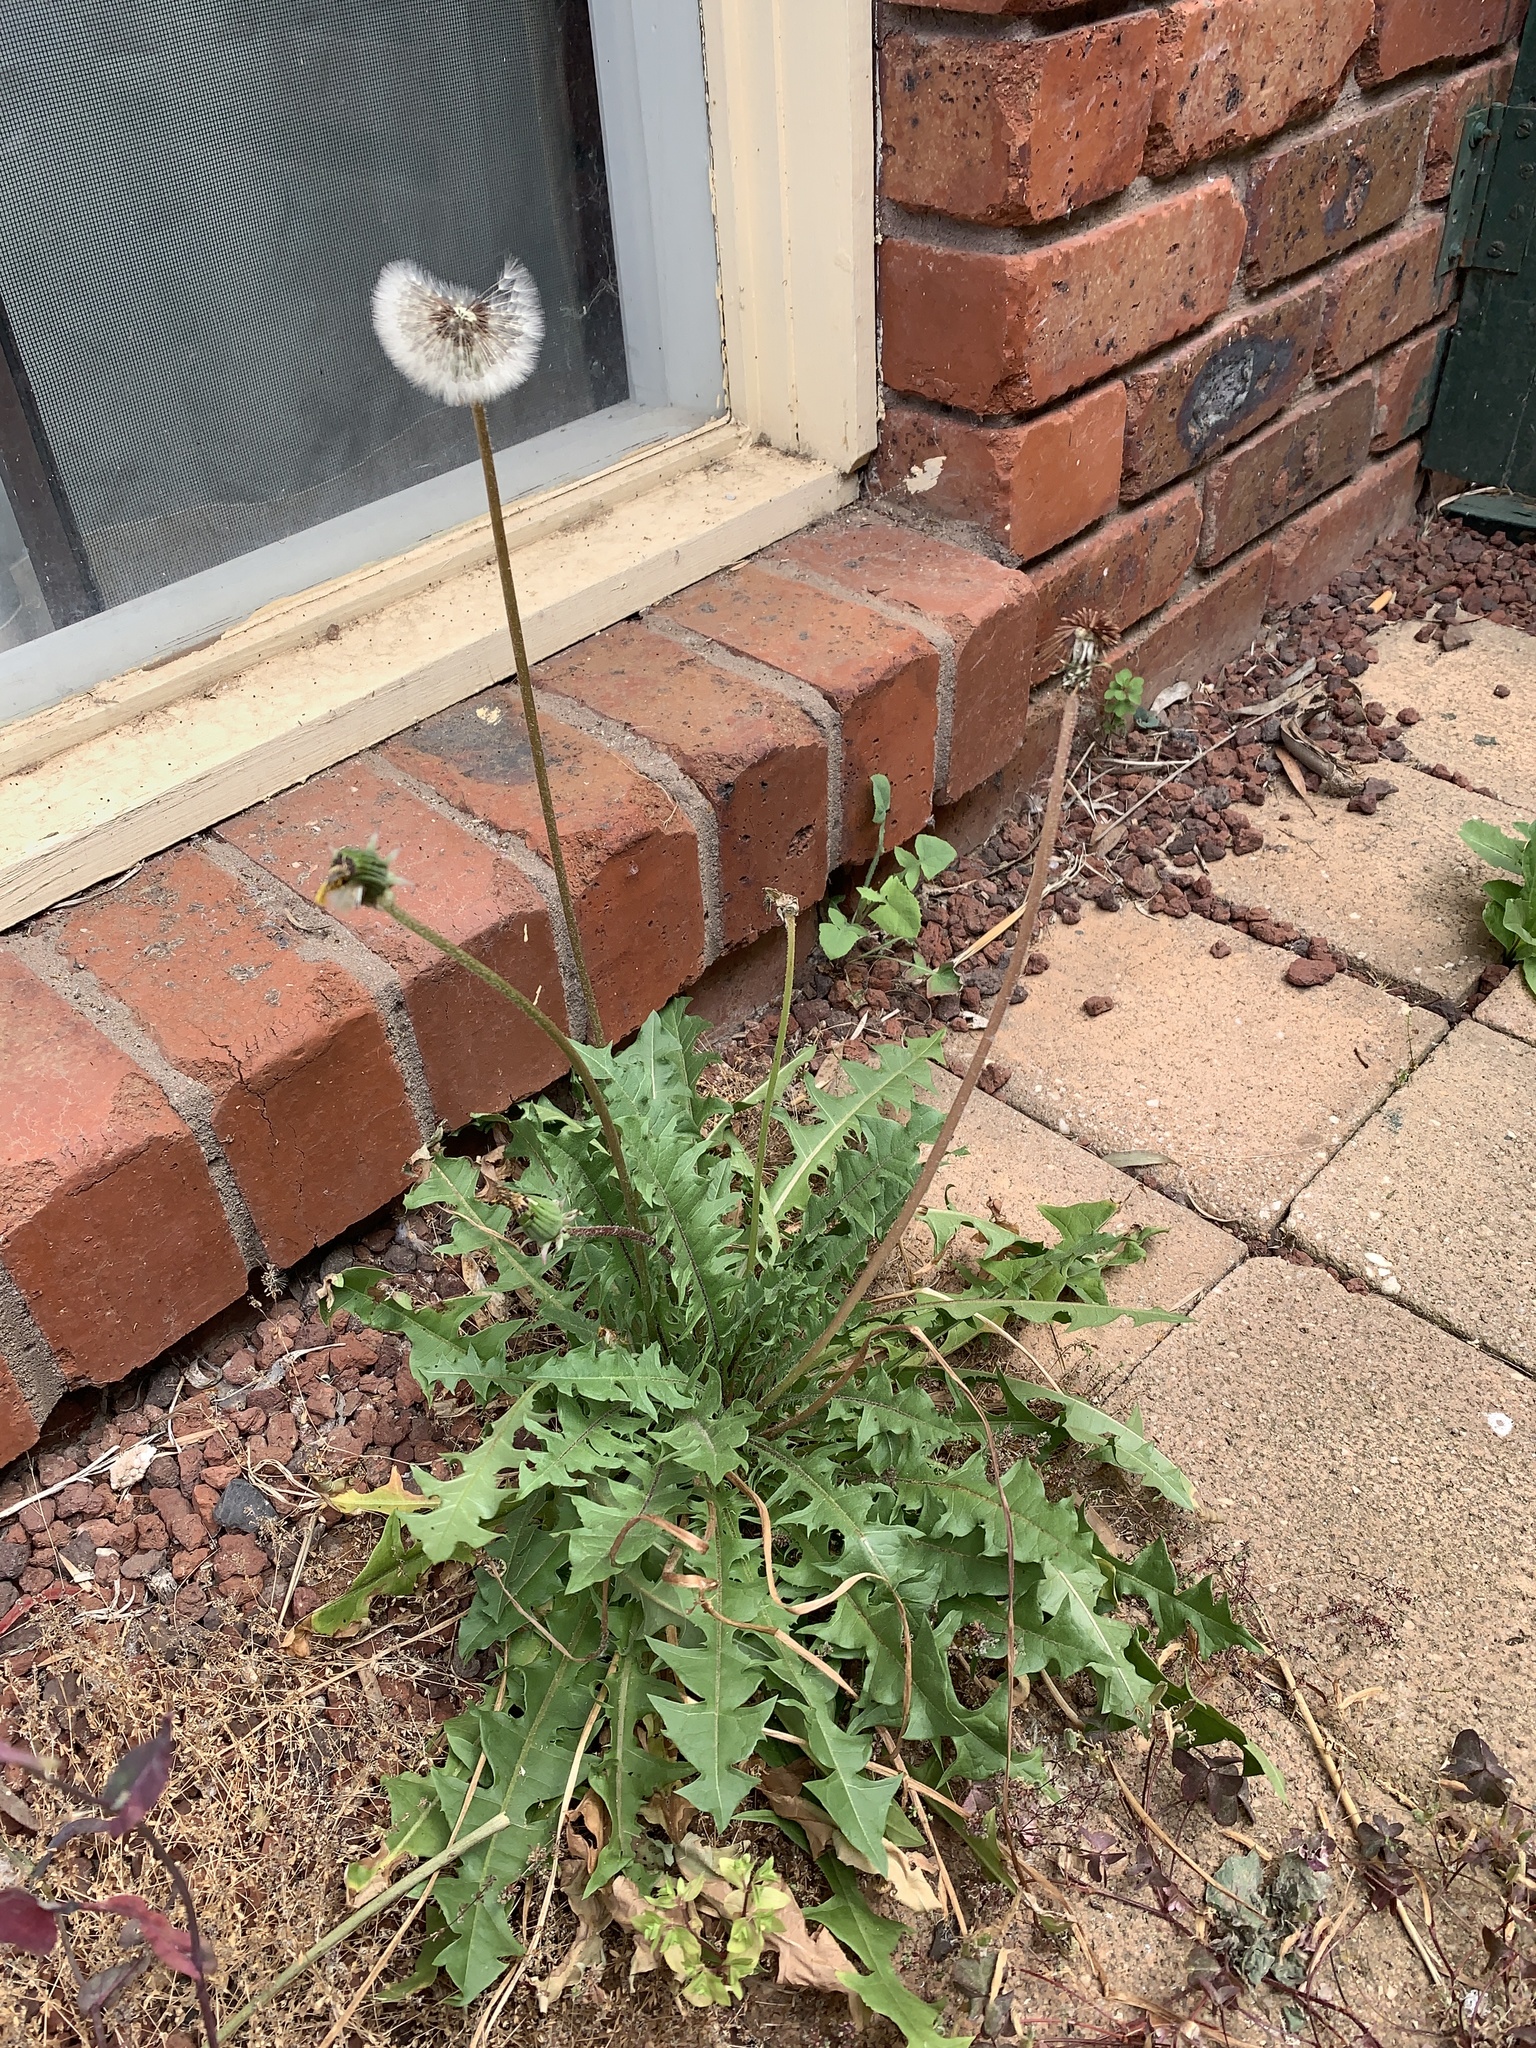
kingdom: Plantae
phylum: Tracheophyta
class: Magnoliopsida
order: Asterales
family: Asteraceae
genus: Taraxacum
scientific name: Taraxacum officinale
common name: Common dandelion
